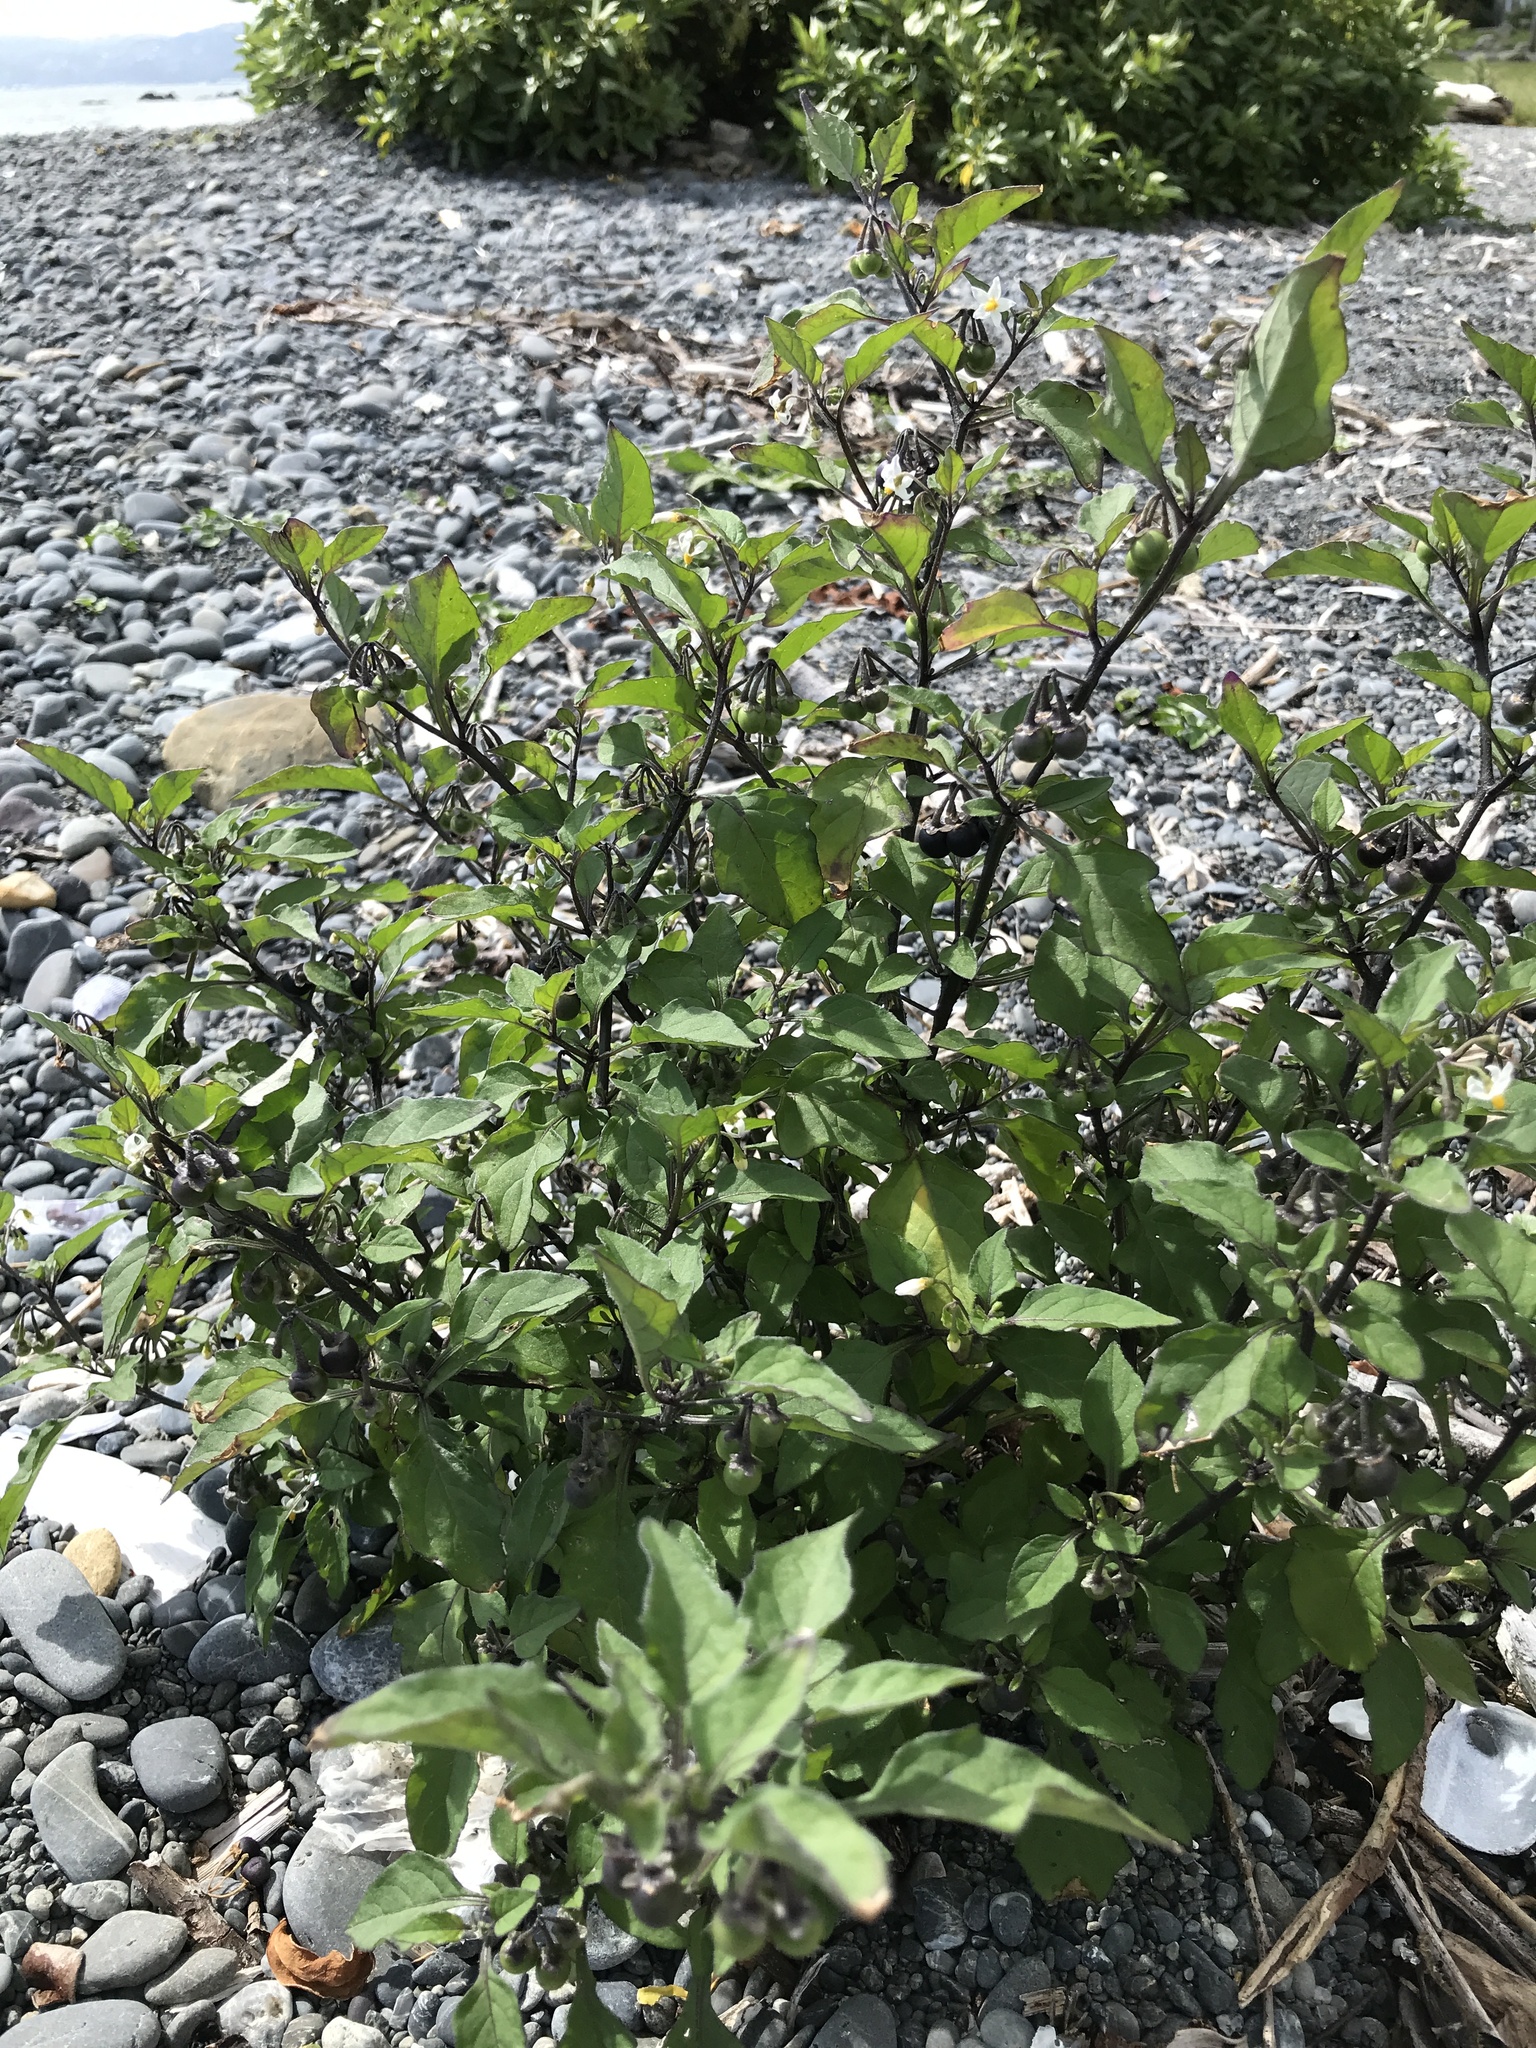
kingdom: Plantae
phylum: Tracheophyta
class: Magnoliopsida
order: Solanales
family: Solanaceae
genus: Solanum
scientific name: Solanum nigrum
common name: Black nightshade
